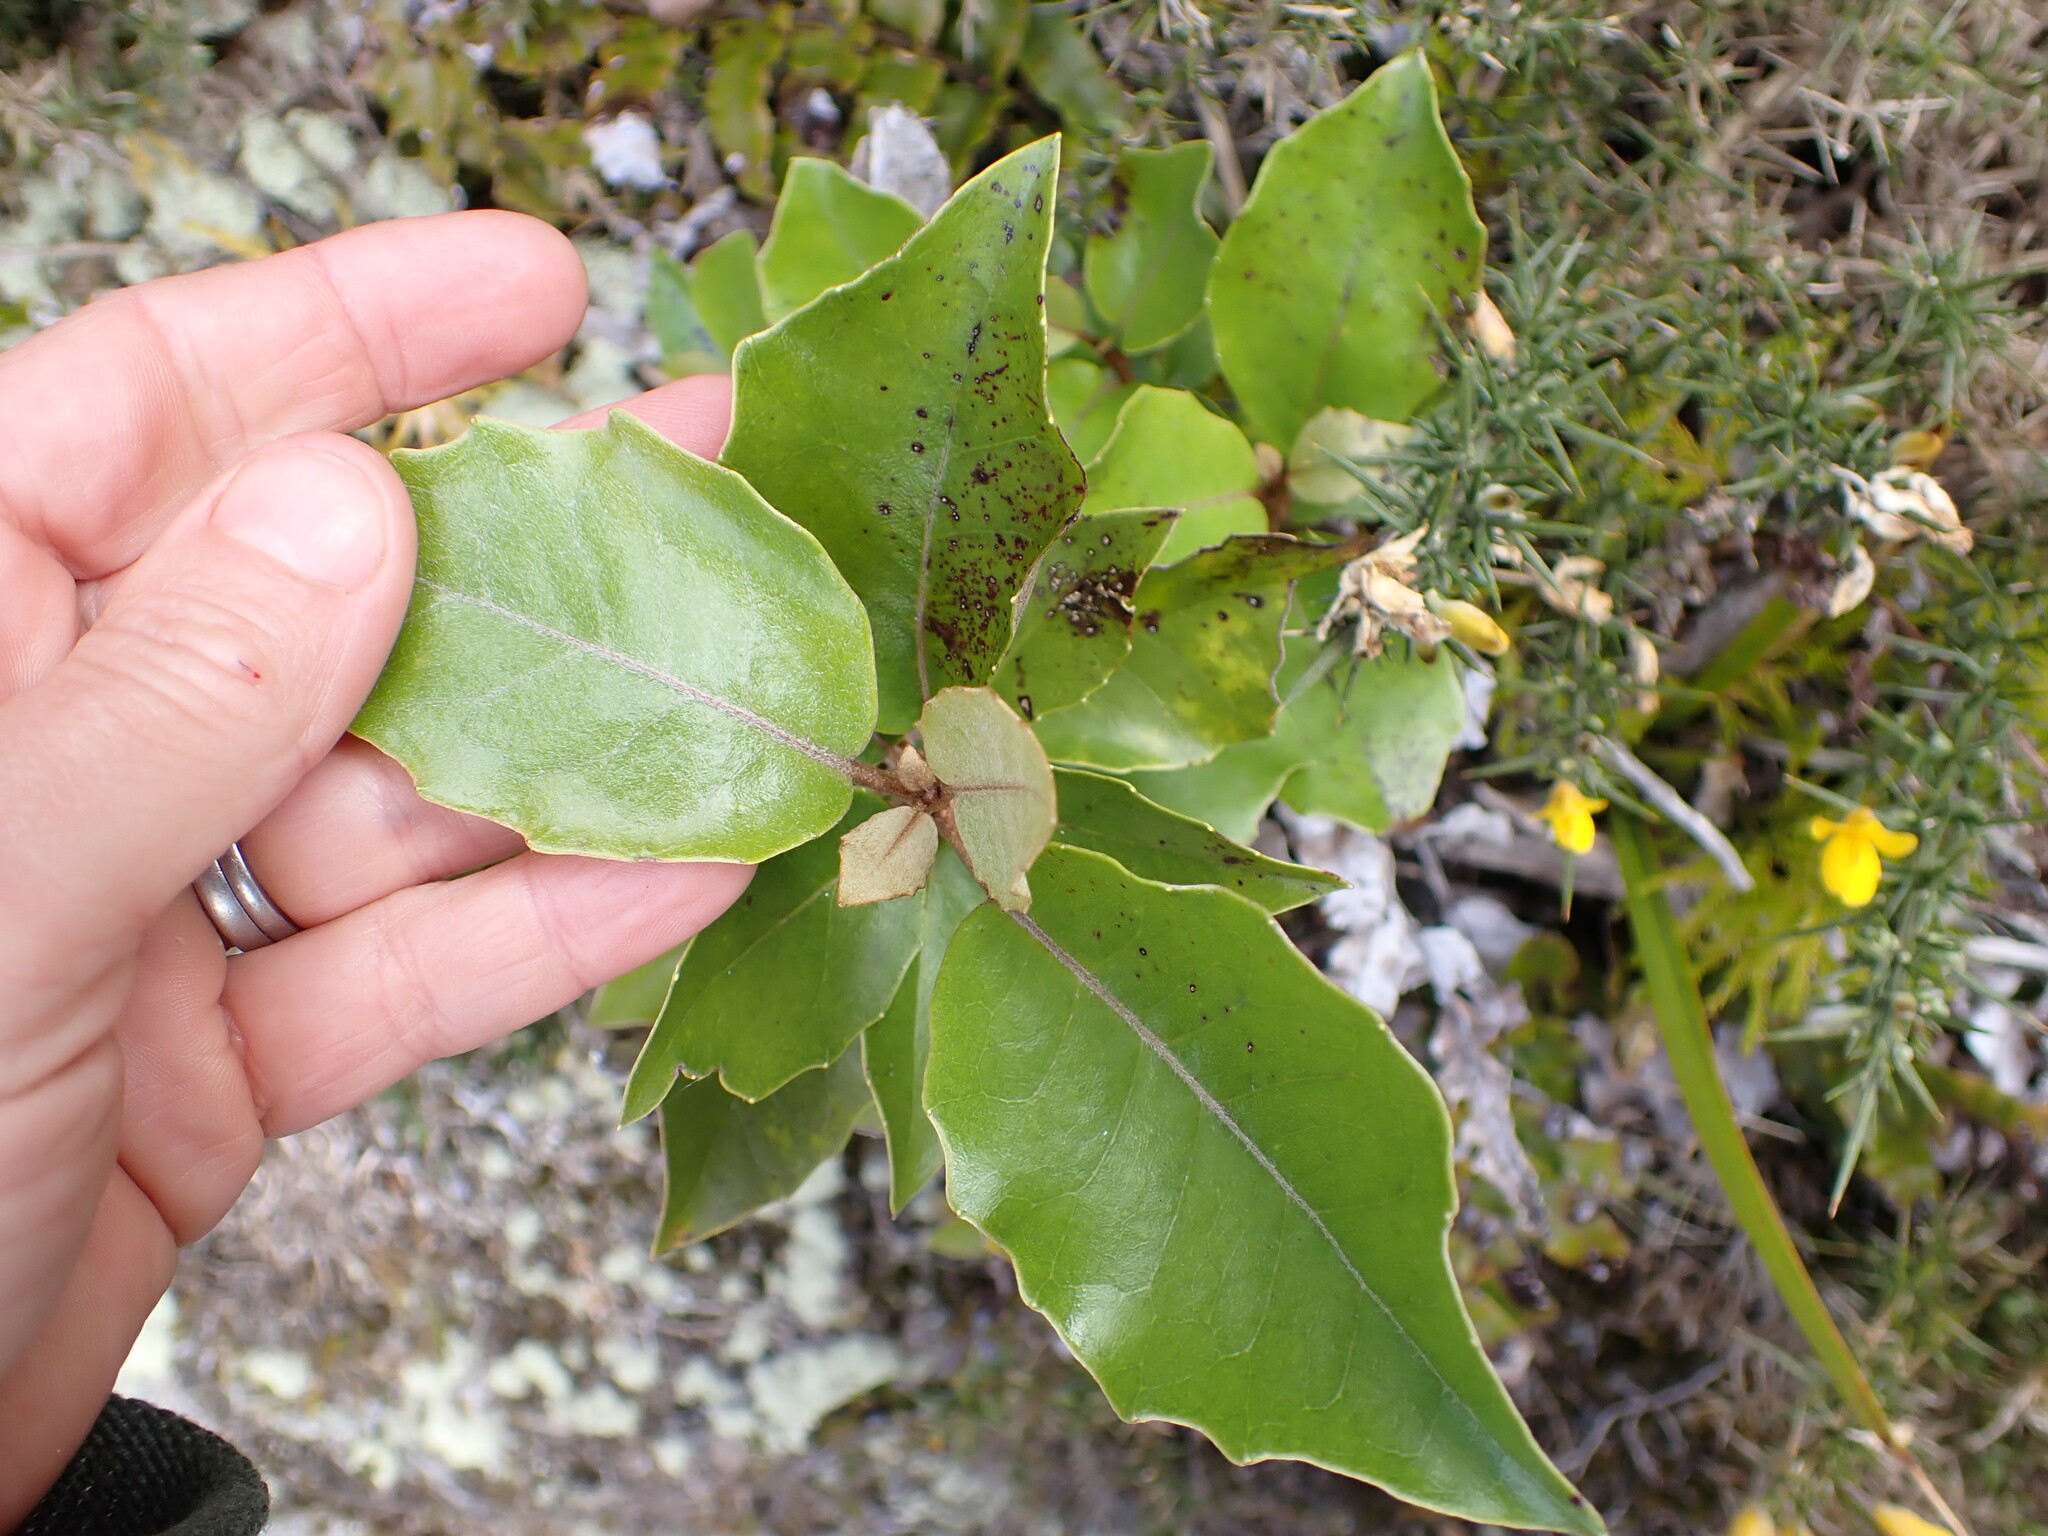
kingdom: Plantae
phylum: Tracheophyta
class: Magnoliopsida
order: Asterales
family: Asteraceae
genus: Olearia
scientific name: Olearia arborescens
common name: Glossy tree daisy
